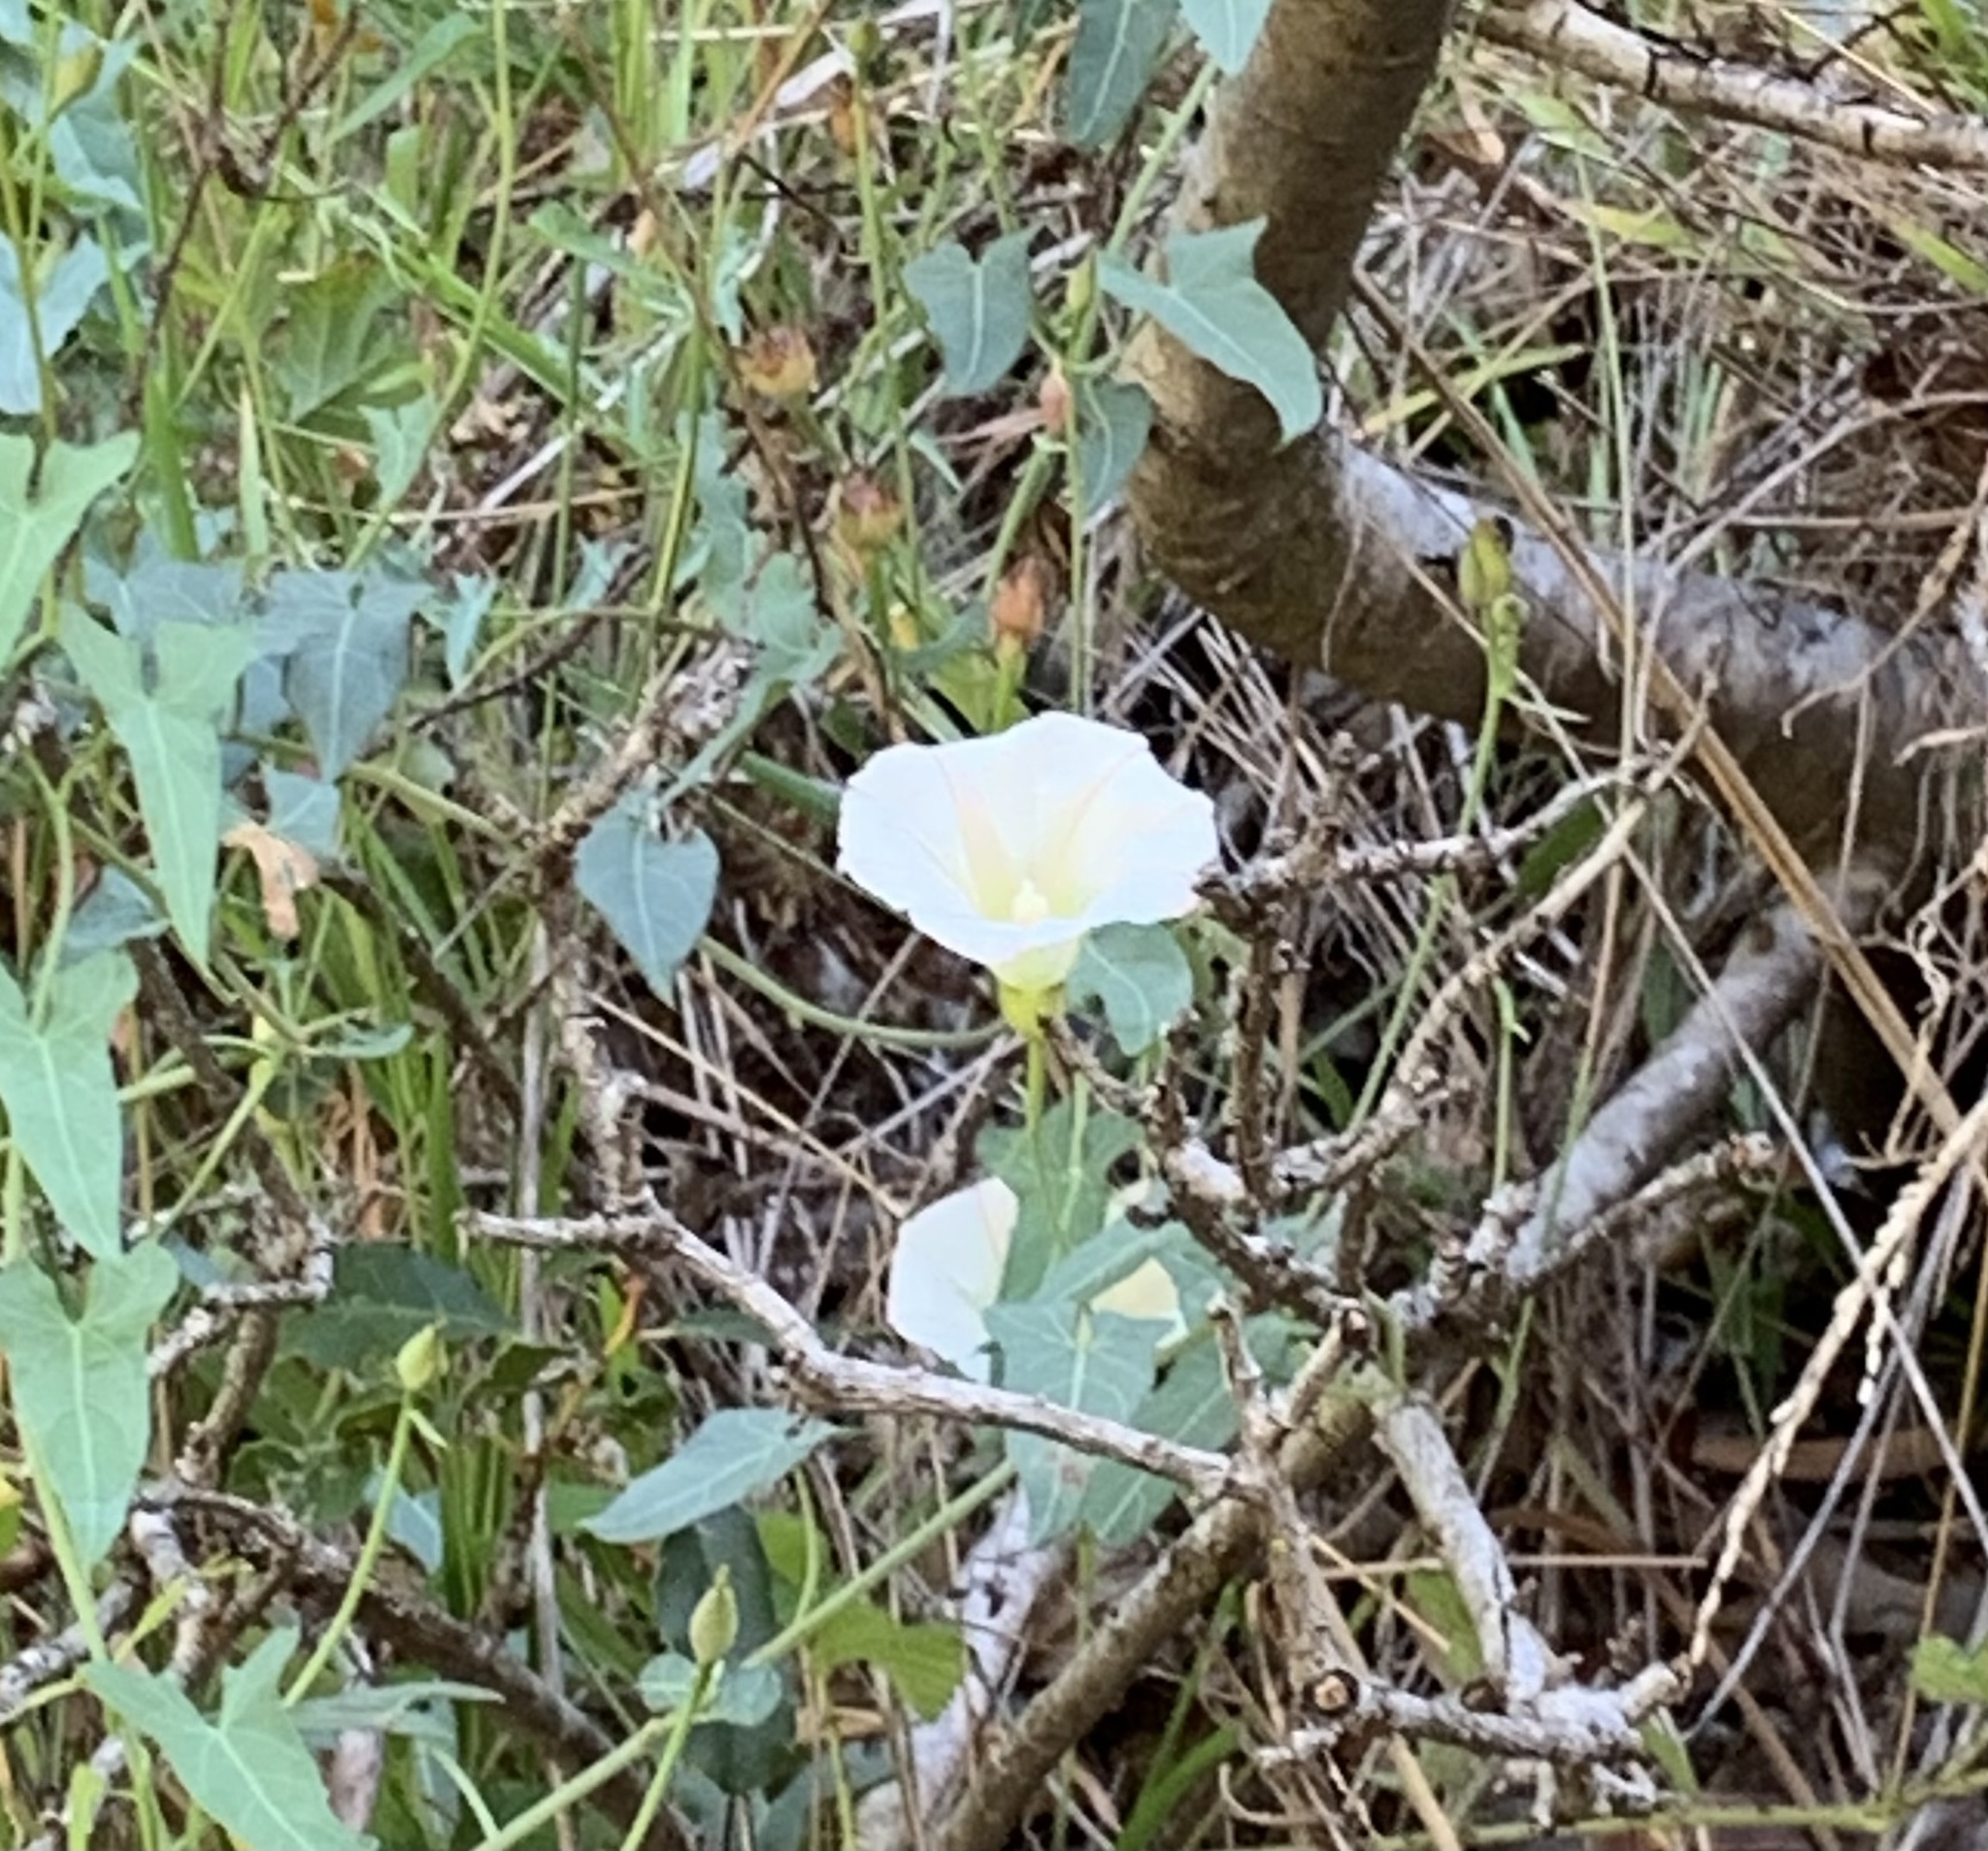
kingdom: Plantae
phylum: Tracheophyta
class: Magnoliopsida
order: Solanales
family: Convolvulaceae
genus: Calystegia
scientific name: Calystegia purpurata
